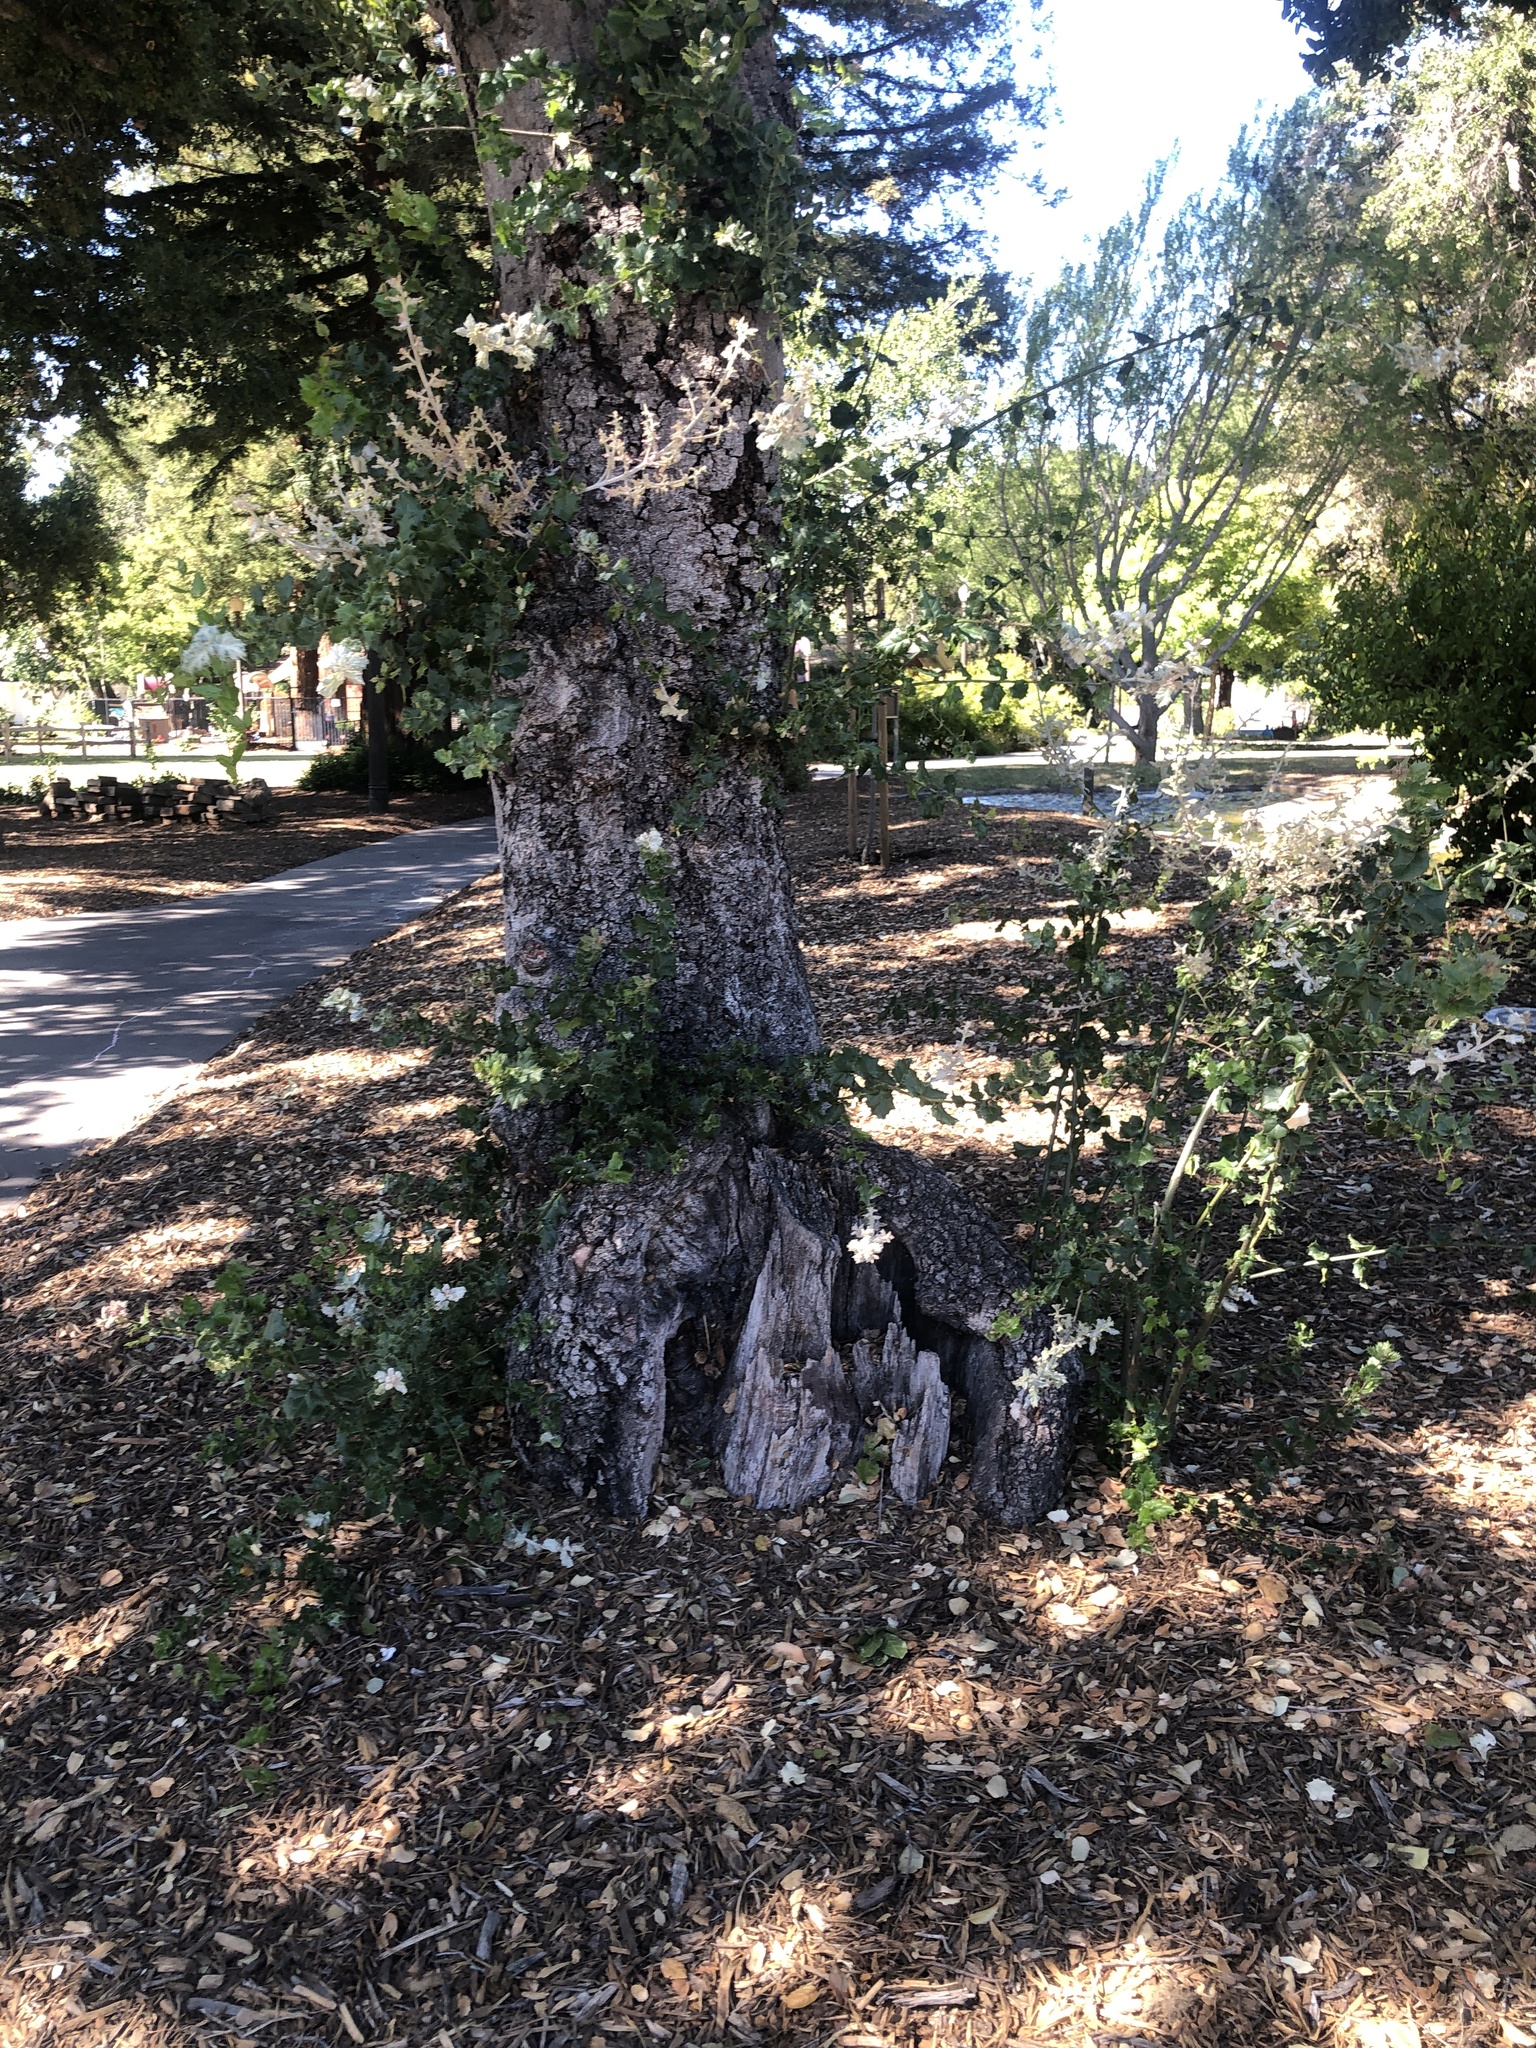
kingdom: Fungi
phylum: Ascomycota
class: Leotiomycetes
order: Helotiales
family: Erysiphaceae
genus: Cystotheca
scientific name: Cystotheca lanestris
